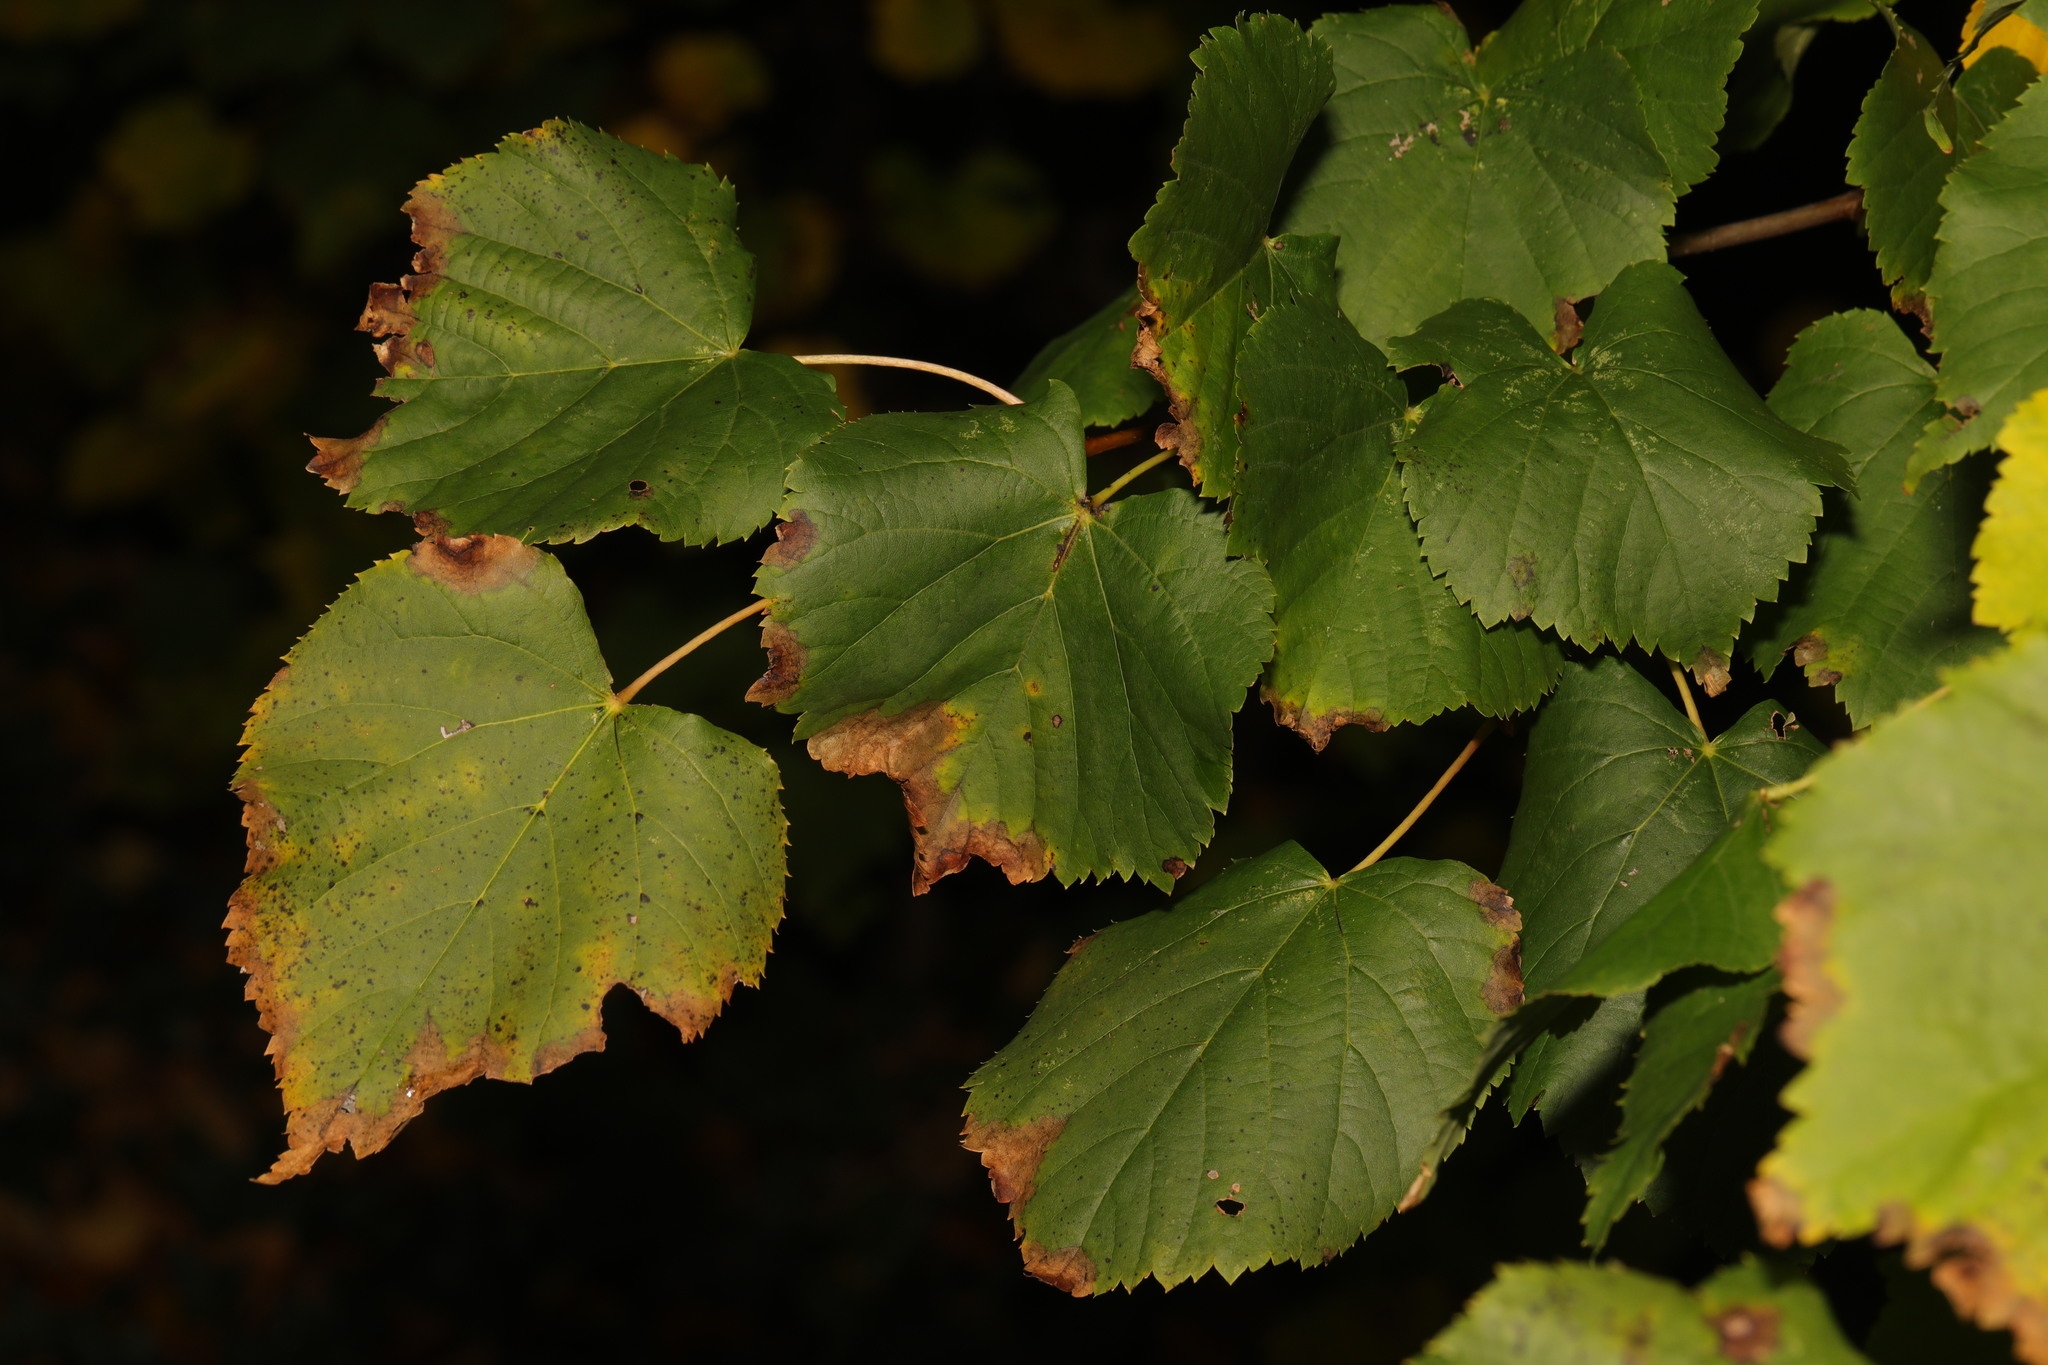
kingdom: Plantae
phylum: Tracheophyta
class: Magnoliopsida
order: Malvales
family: Malvaceae
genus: Tilia
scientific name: Tilia europaea
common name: European linden
